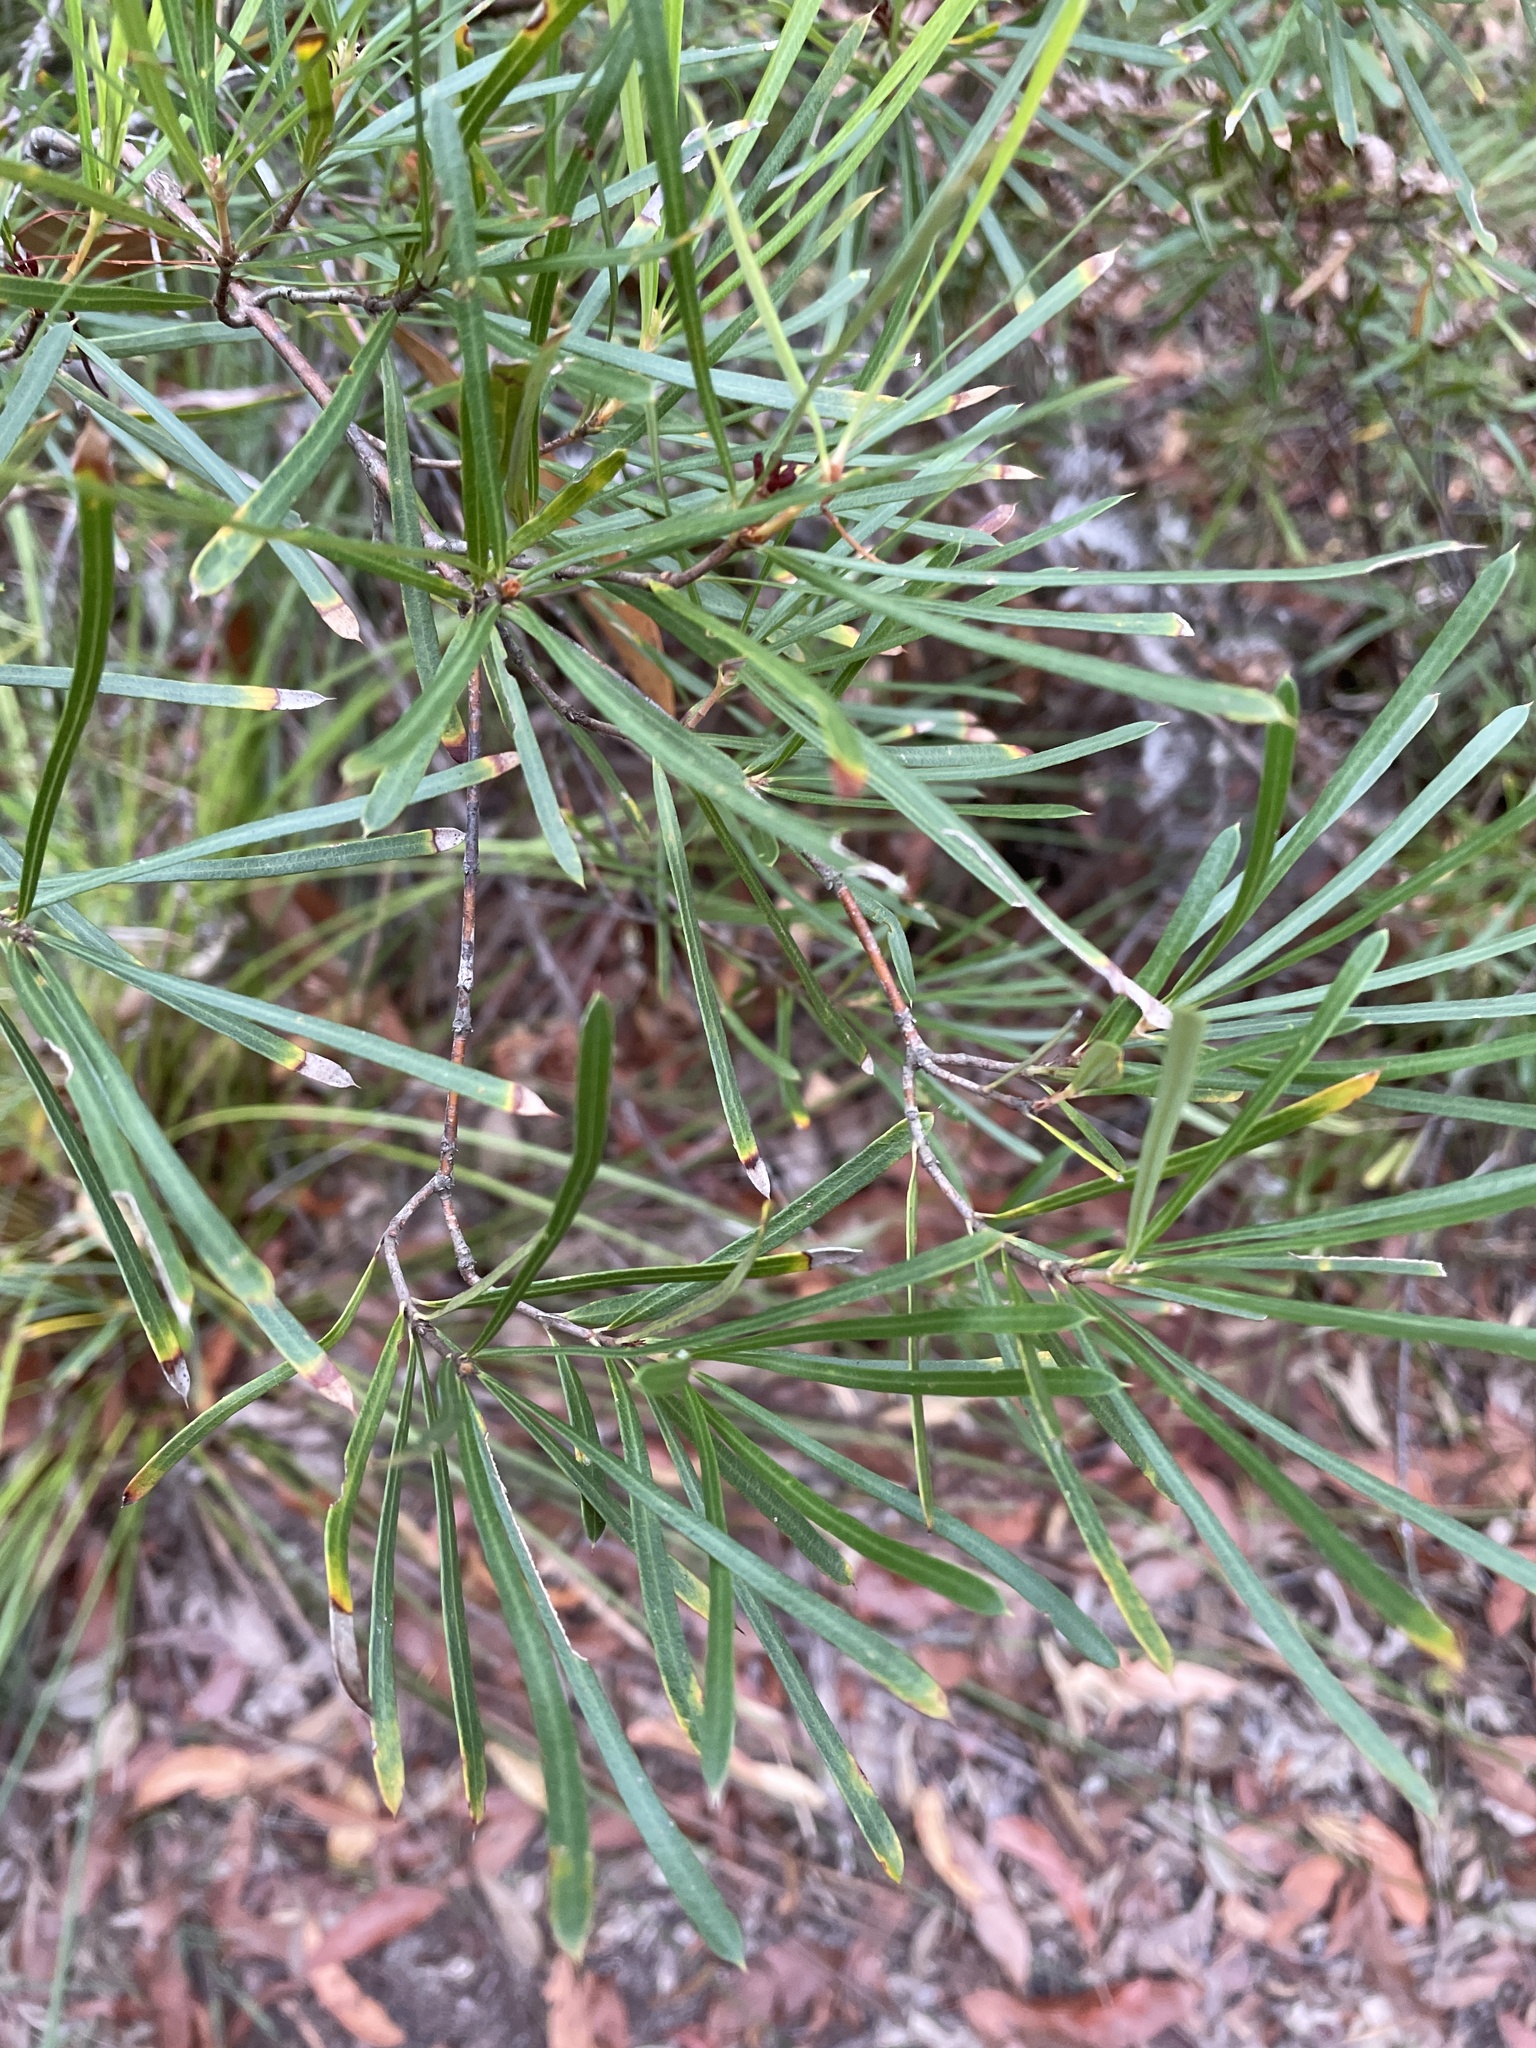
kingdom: Plantae
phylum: Tracheophyta
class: Magnoliopsida
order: Proteales
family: Proteaceae
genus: Lambertia
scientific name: Lambertia formosa
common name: Mountain-devil
